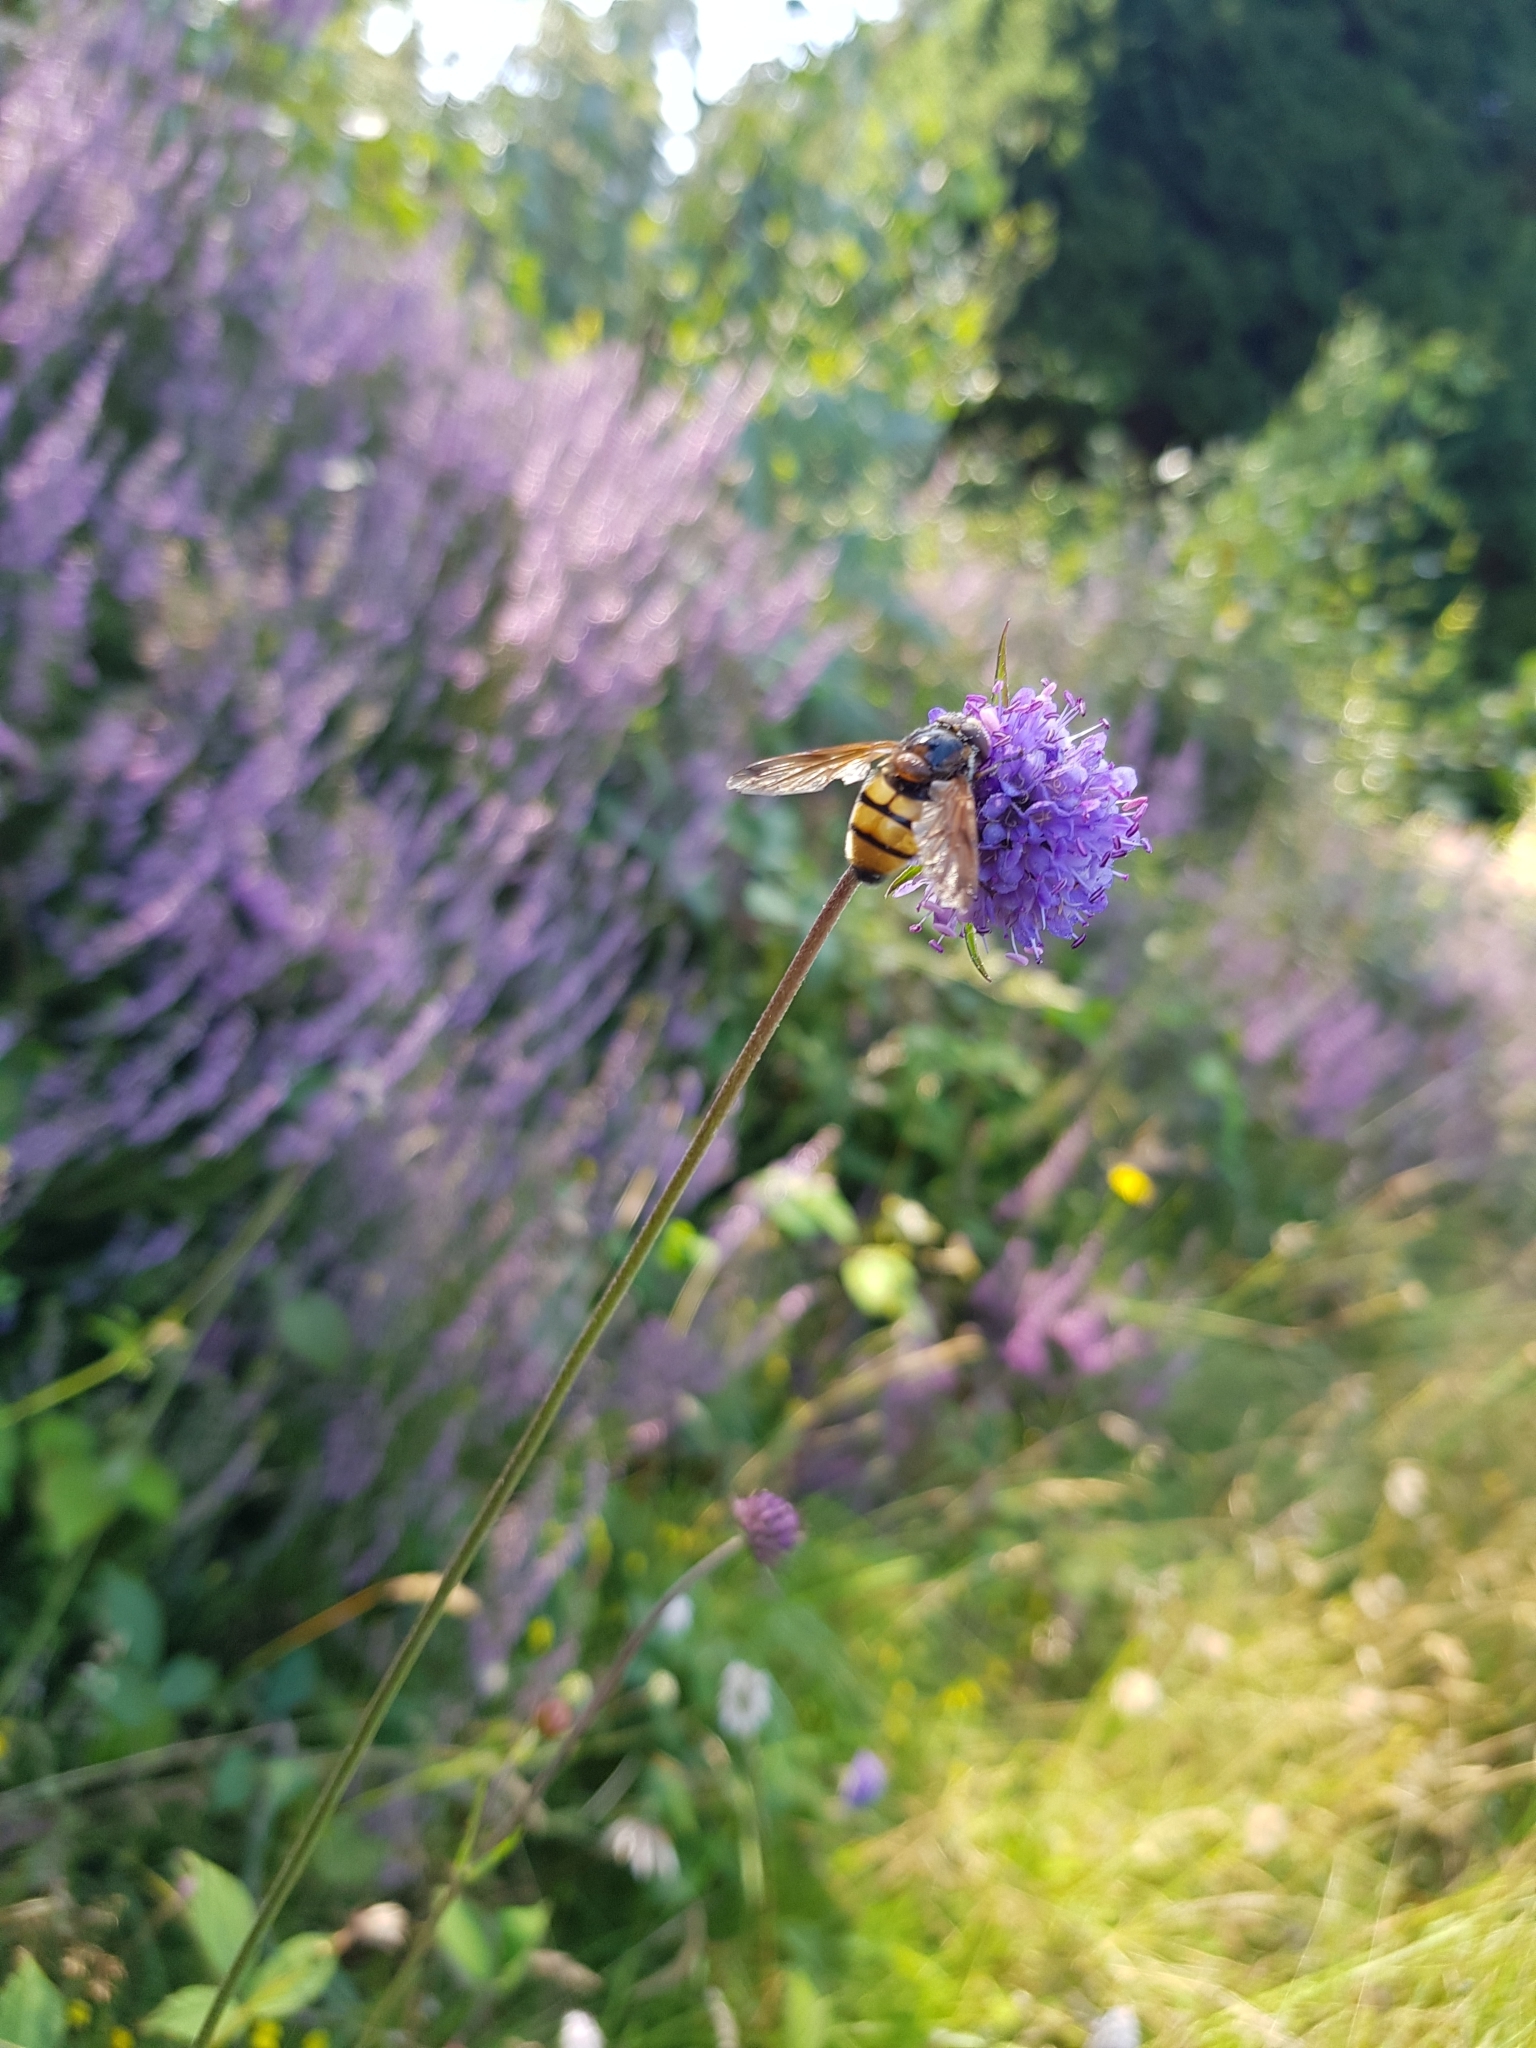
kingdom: Animalia
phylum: Arthropoda
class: Insecta
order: Diptera
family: Syrphidae
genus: Volucella
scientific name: Volucella inanis
